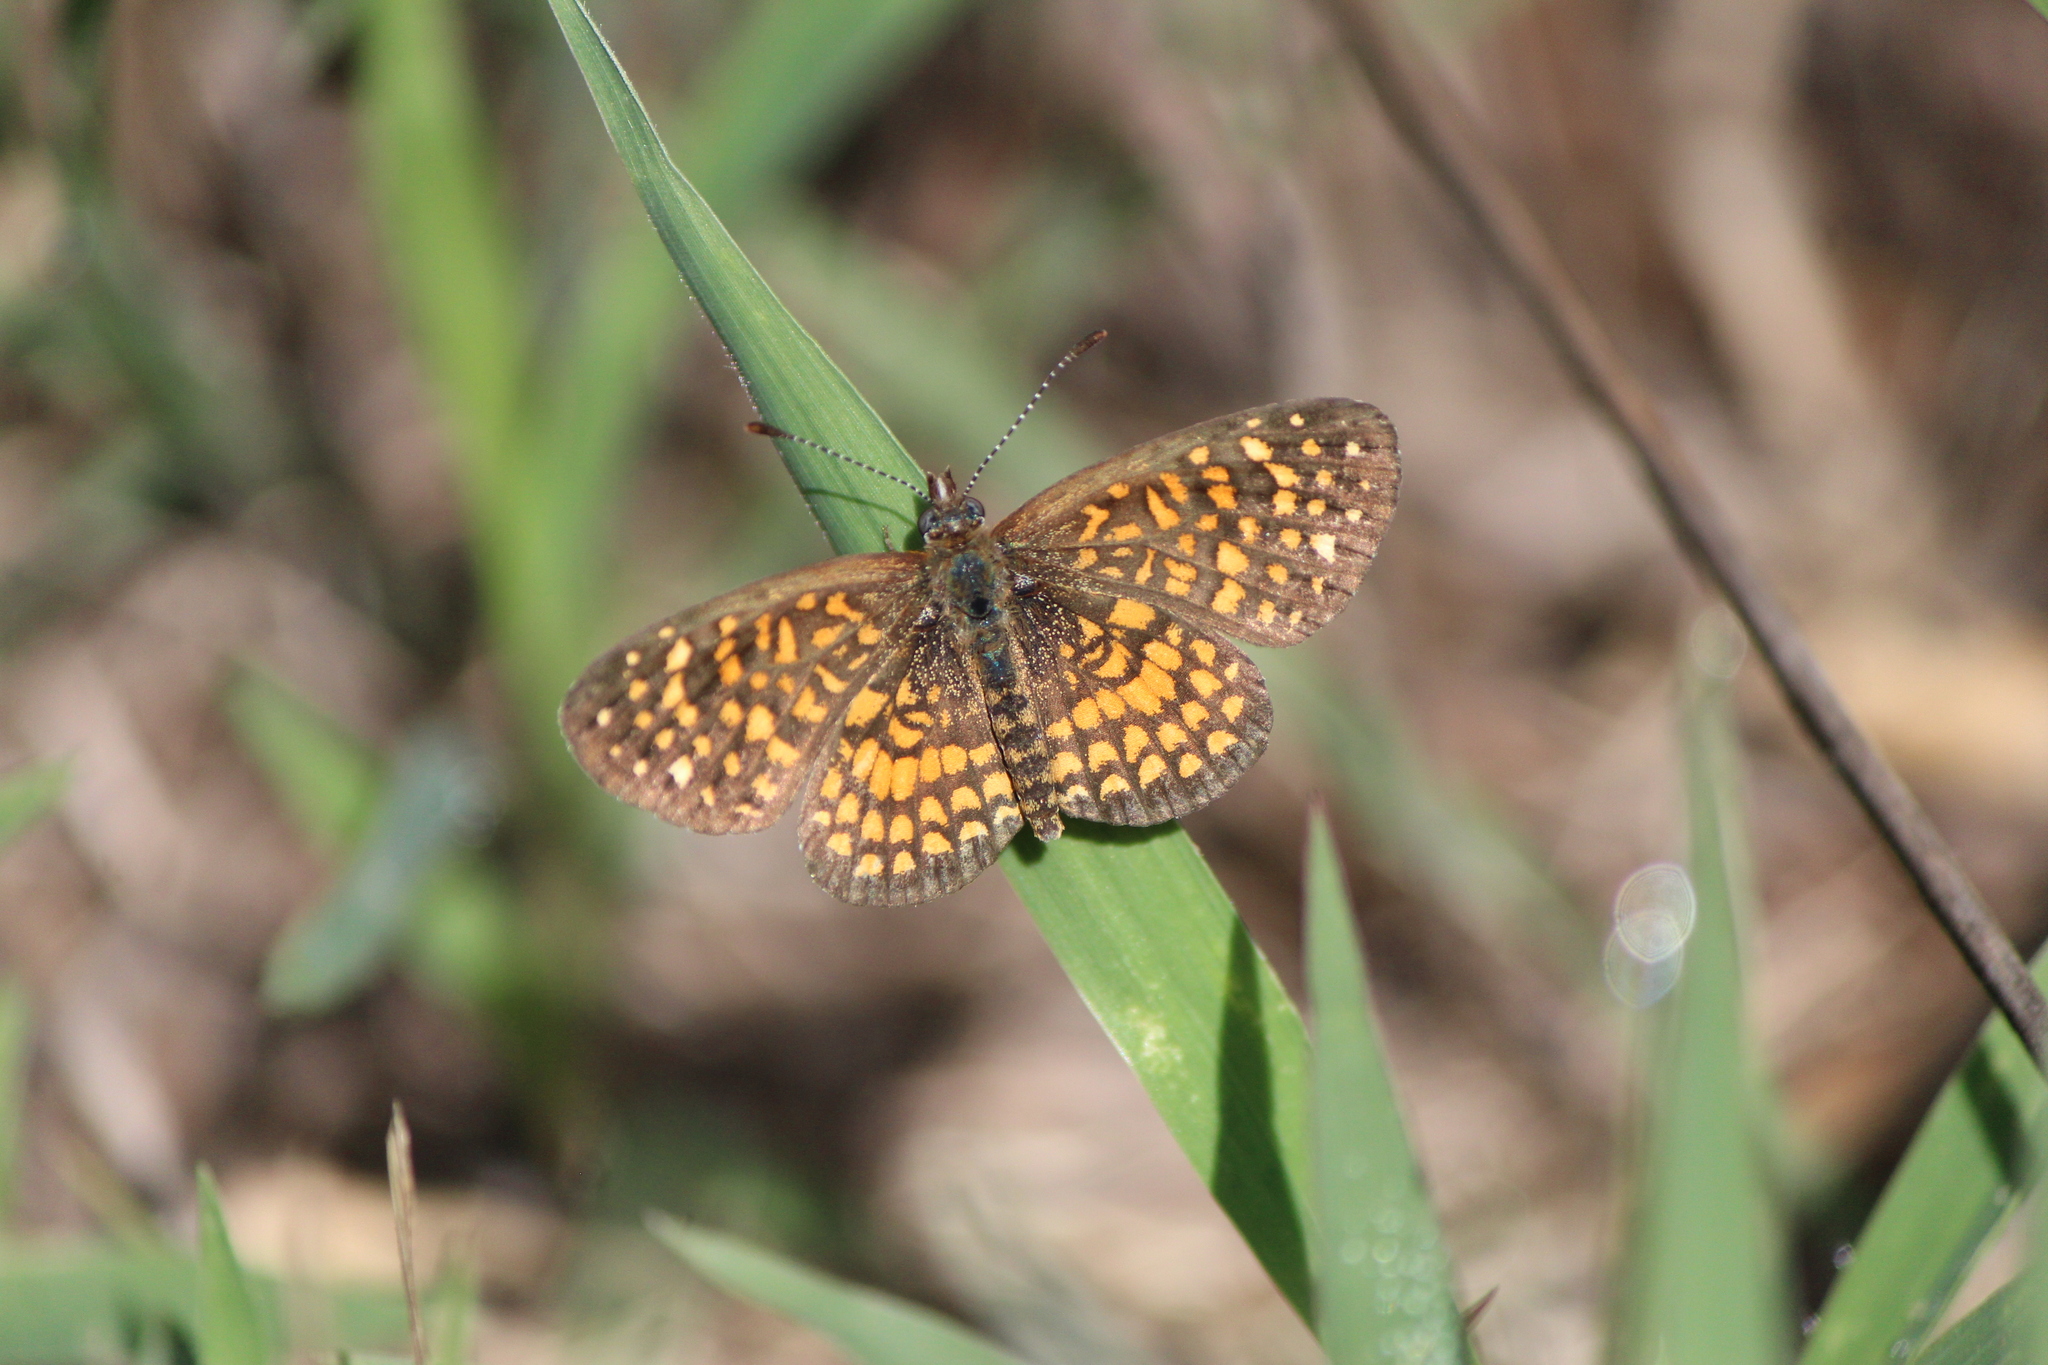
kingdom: Animalia
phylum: Arthropoda
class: Insecta
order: Lepidoptera
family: Nymphalidae
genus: Texola
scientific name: Texola elada
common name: Elada checkerspot
